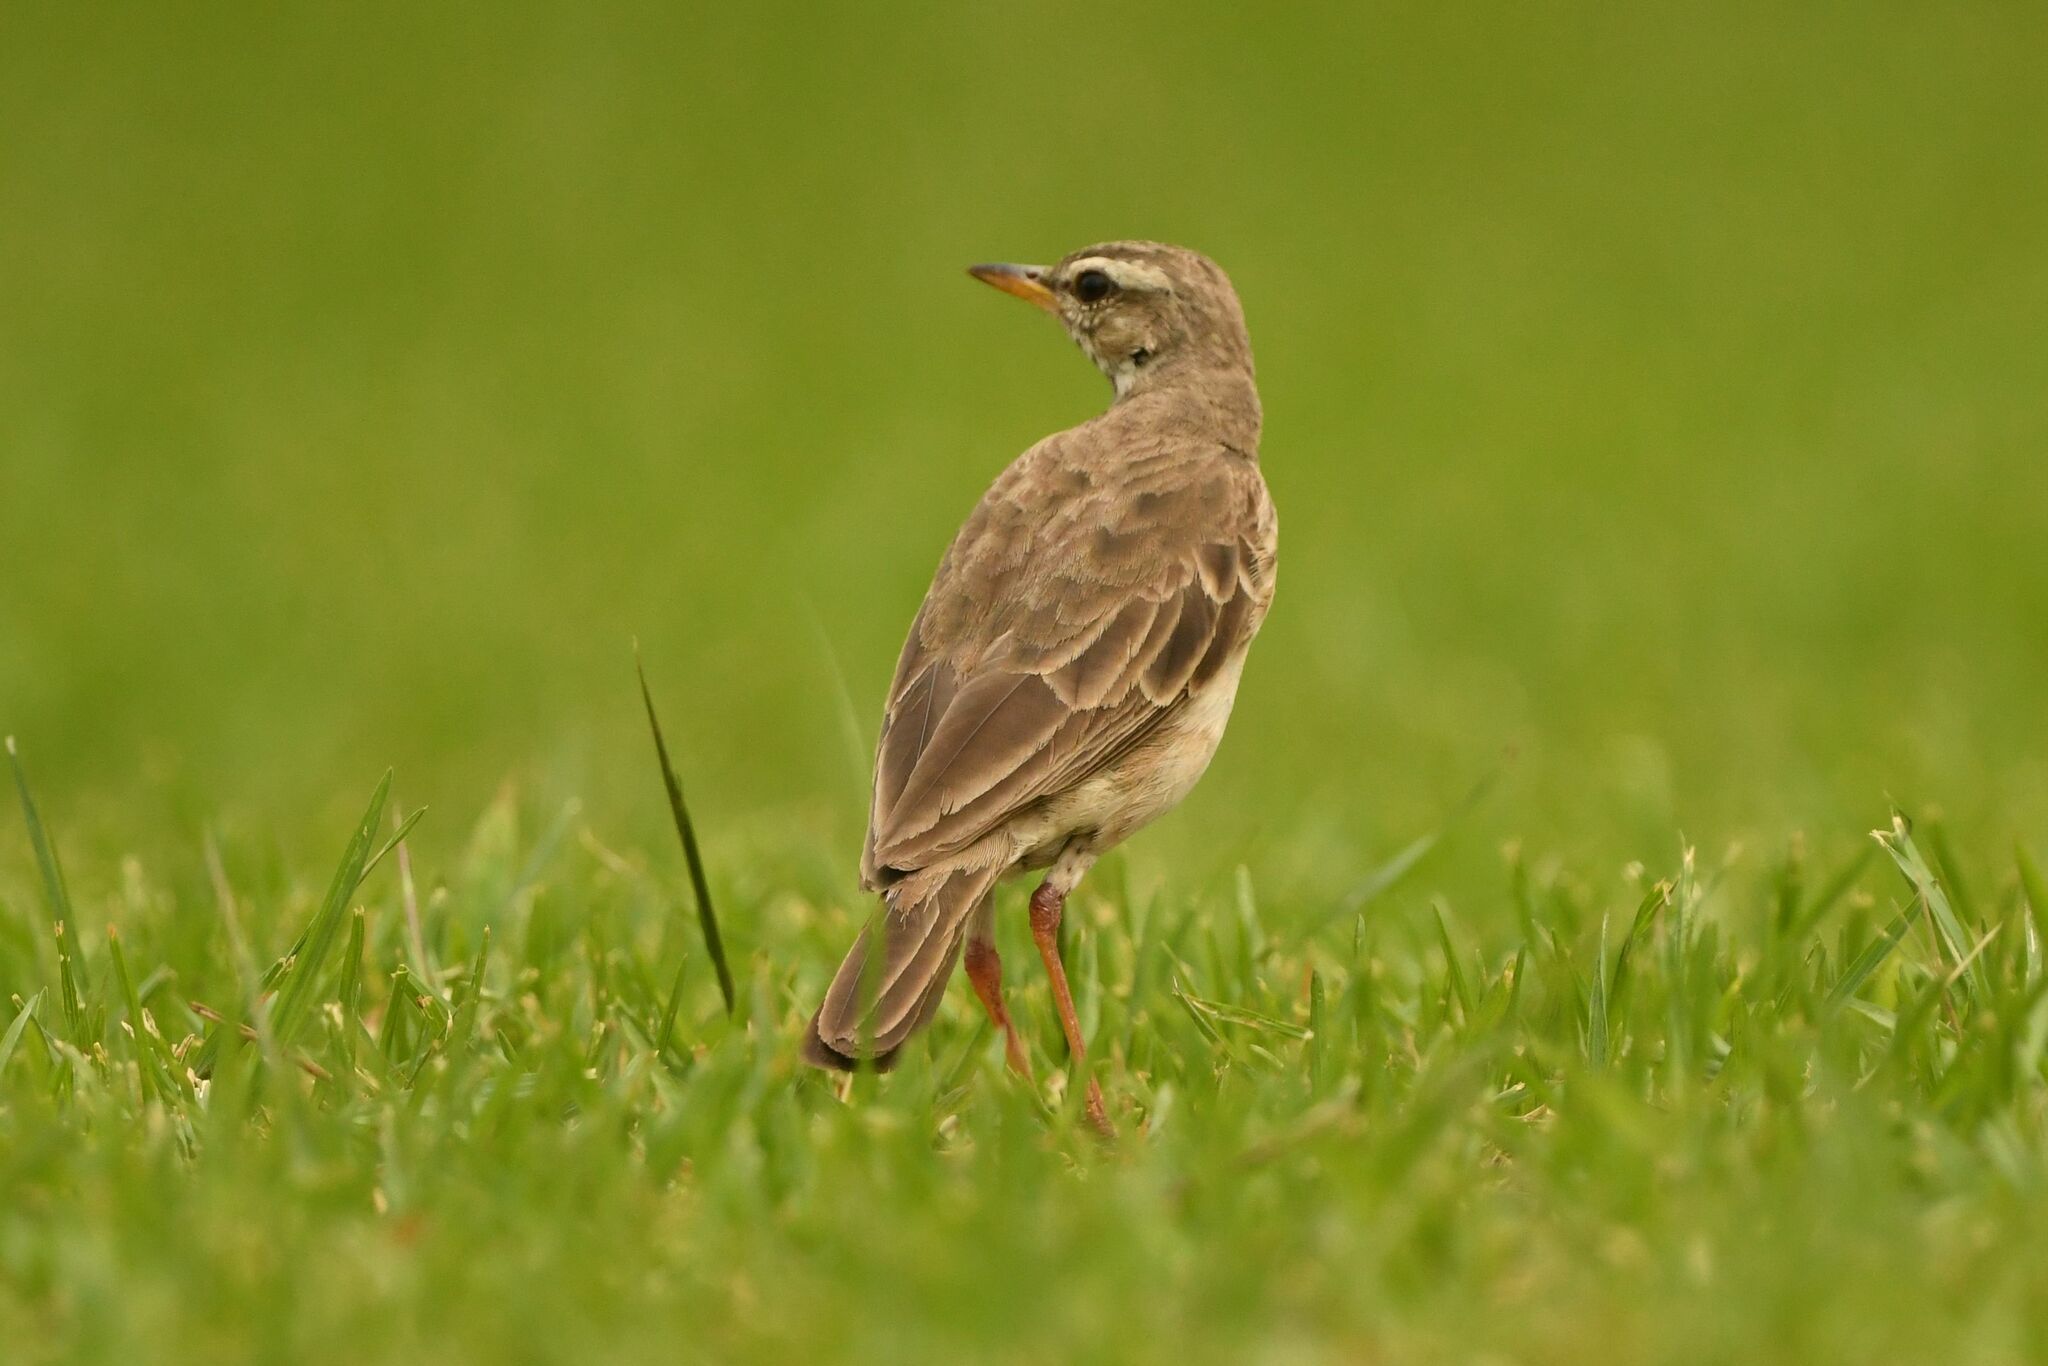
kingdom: Animalia
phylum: Chordata
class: Aves
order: Passeriformes
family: Motacillidae
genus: Anthus
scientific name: Anthus pallidiventris
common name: Long-legged pipit
